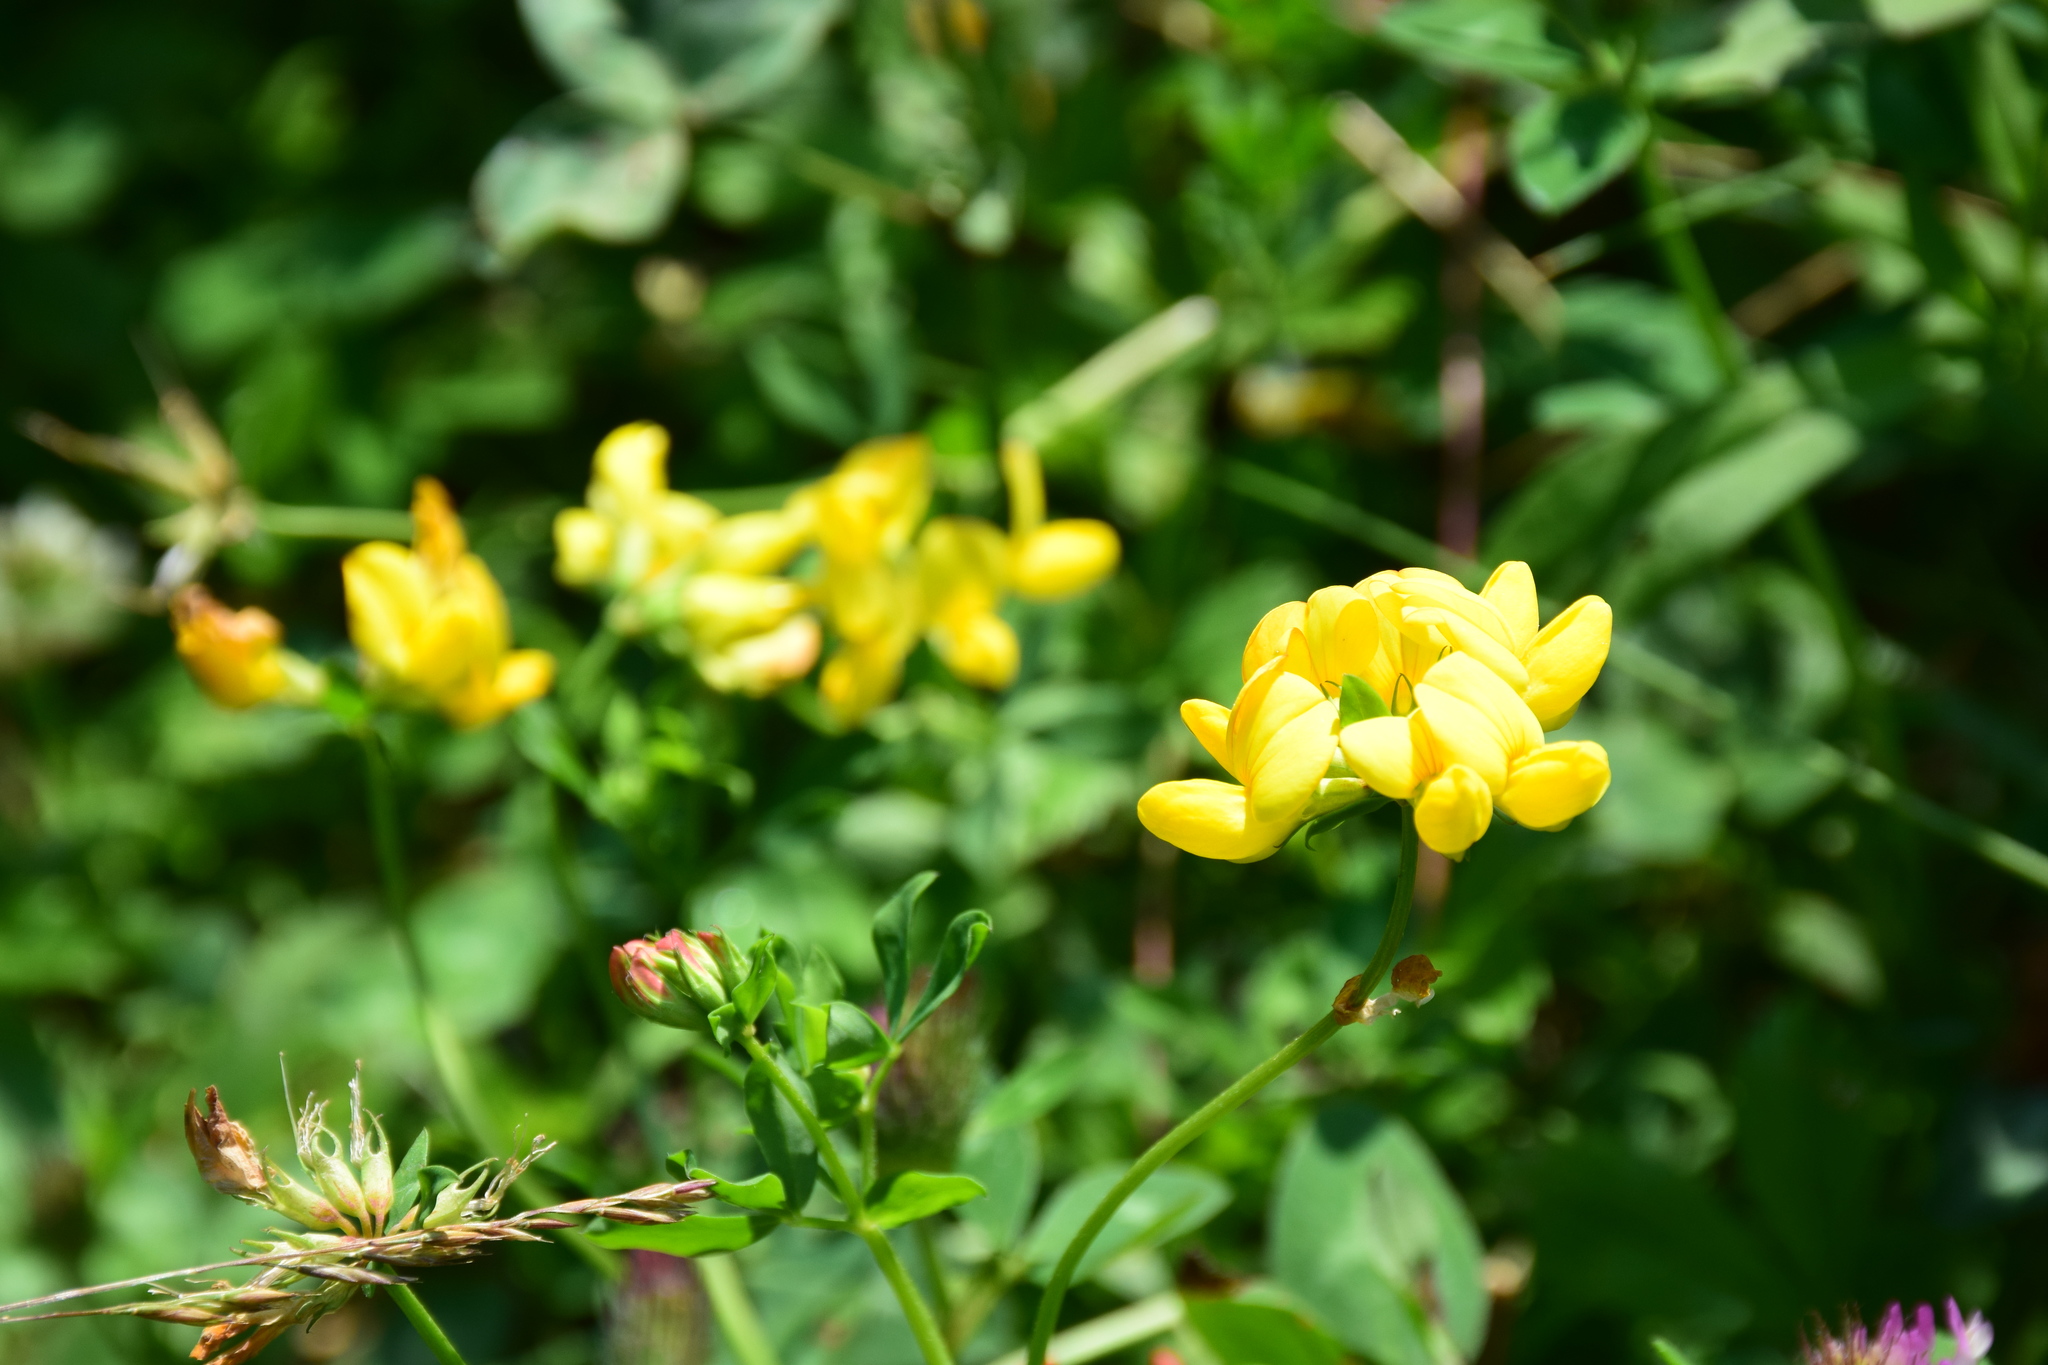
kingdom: Plantae
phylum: Tracheophyta
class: Magnoliopsida
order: Fabales
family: Fabaceae
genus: Lotus
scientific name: Lotus corniculatus
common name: Common bird's-foot-trefoil
